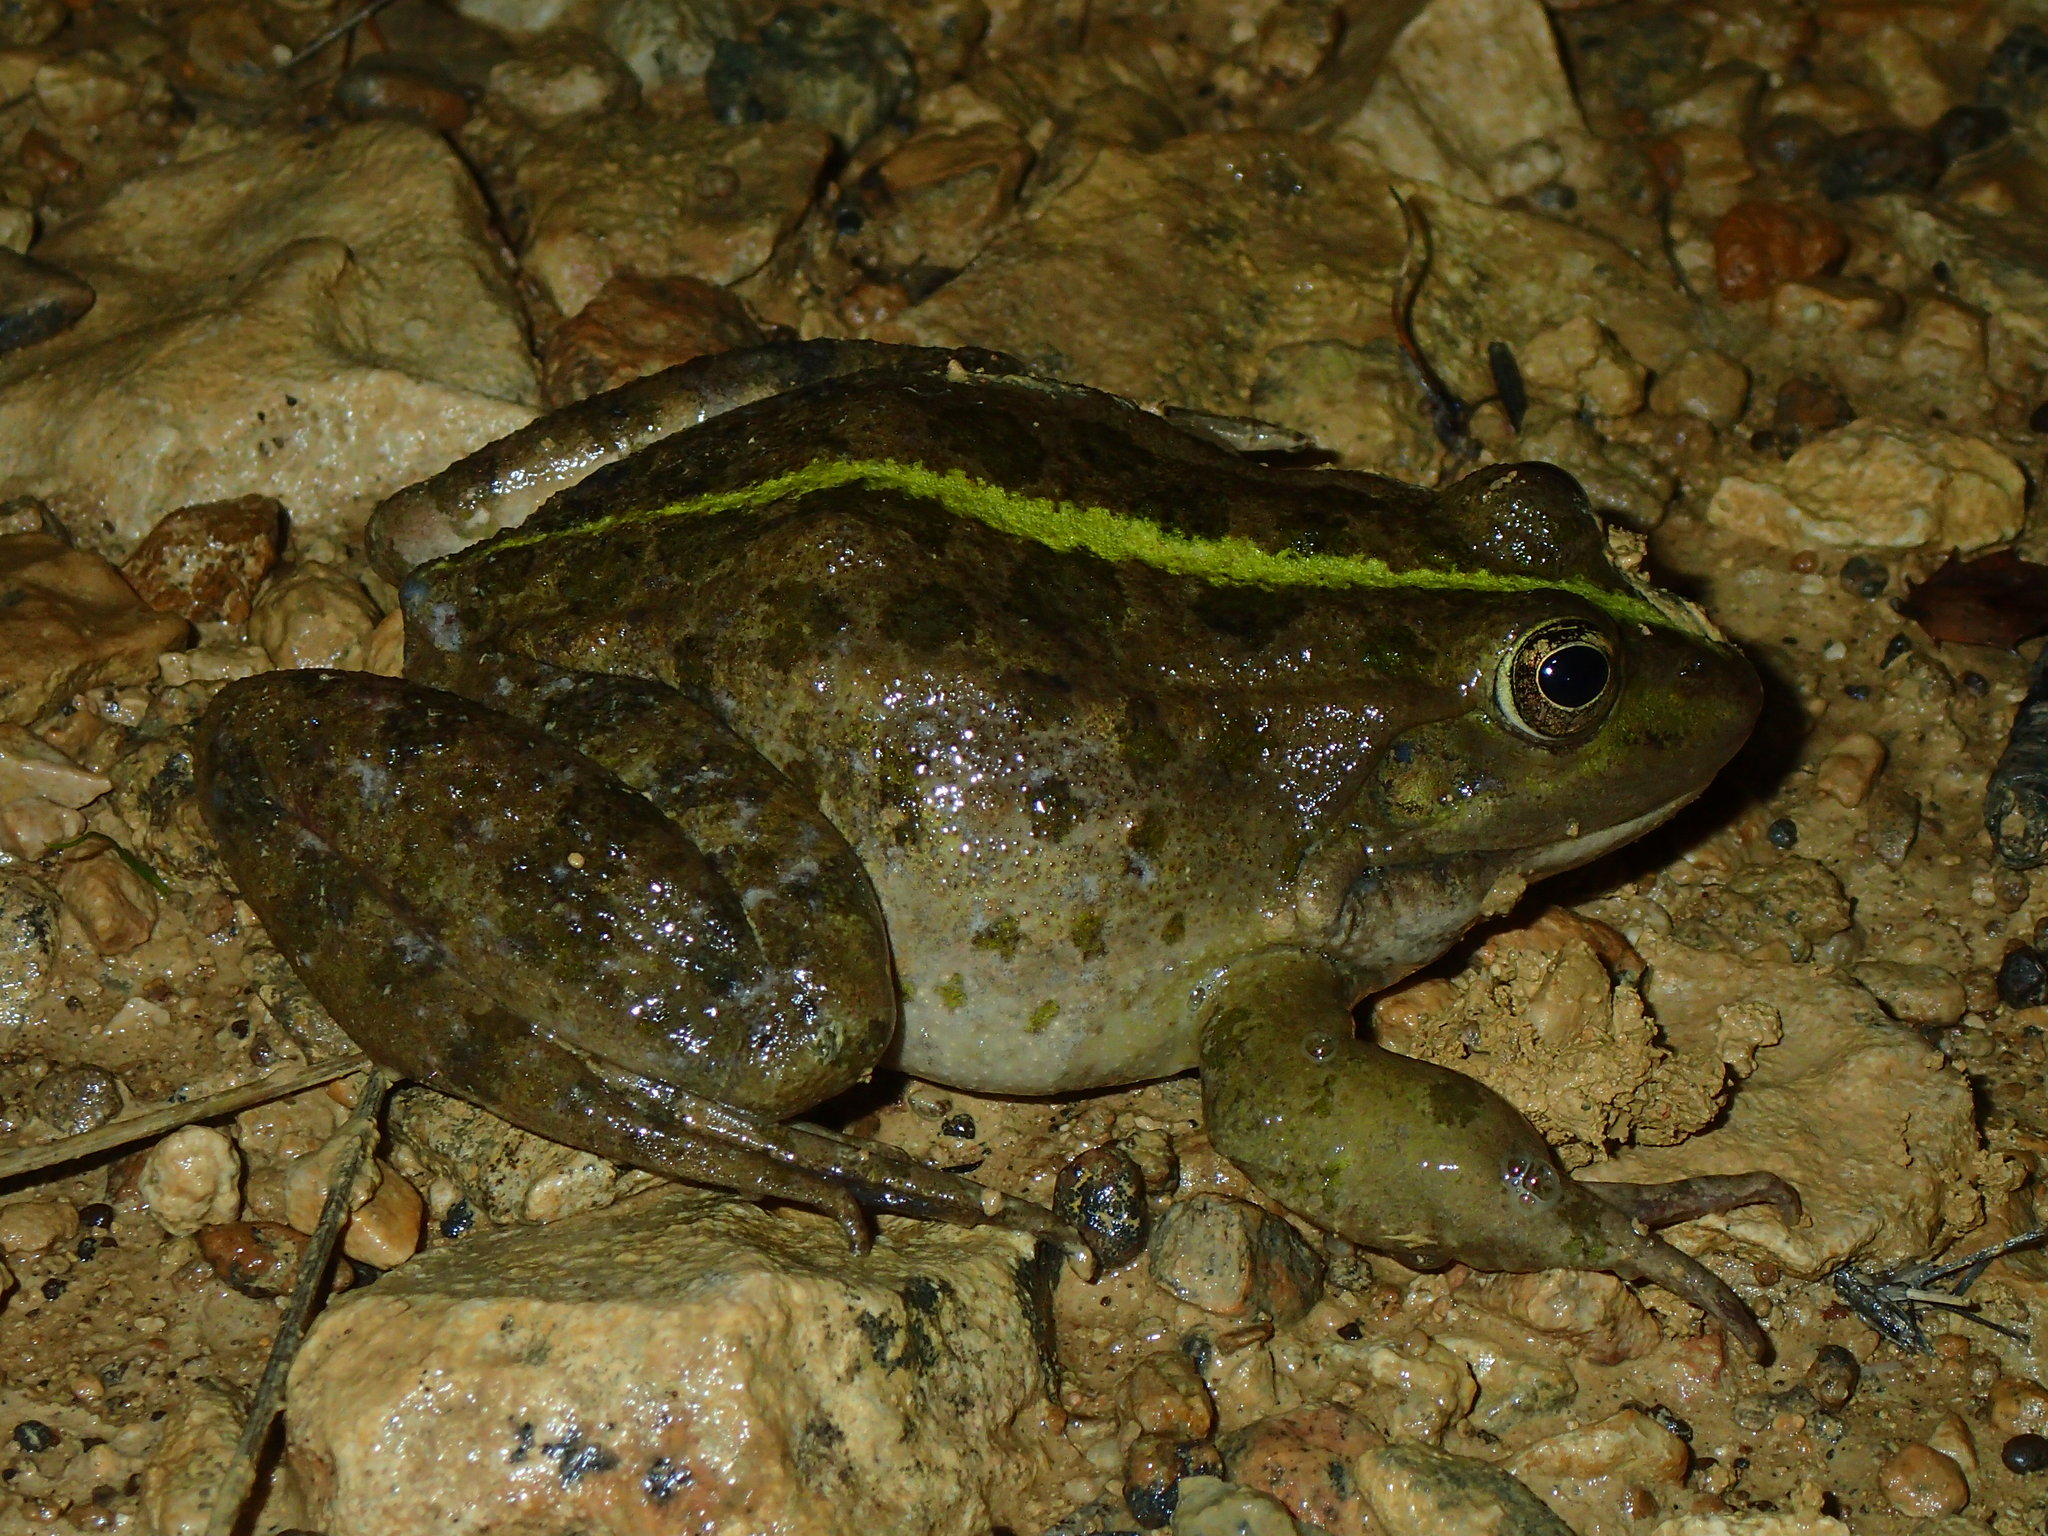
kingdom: Animalia
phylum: Chordata
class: Amphibia
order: Anura
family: Ranidae
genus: Pelophylax
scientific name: Pelophylax
